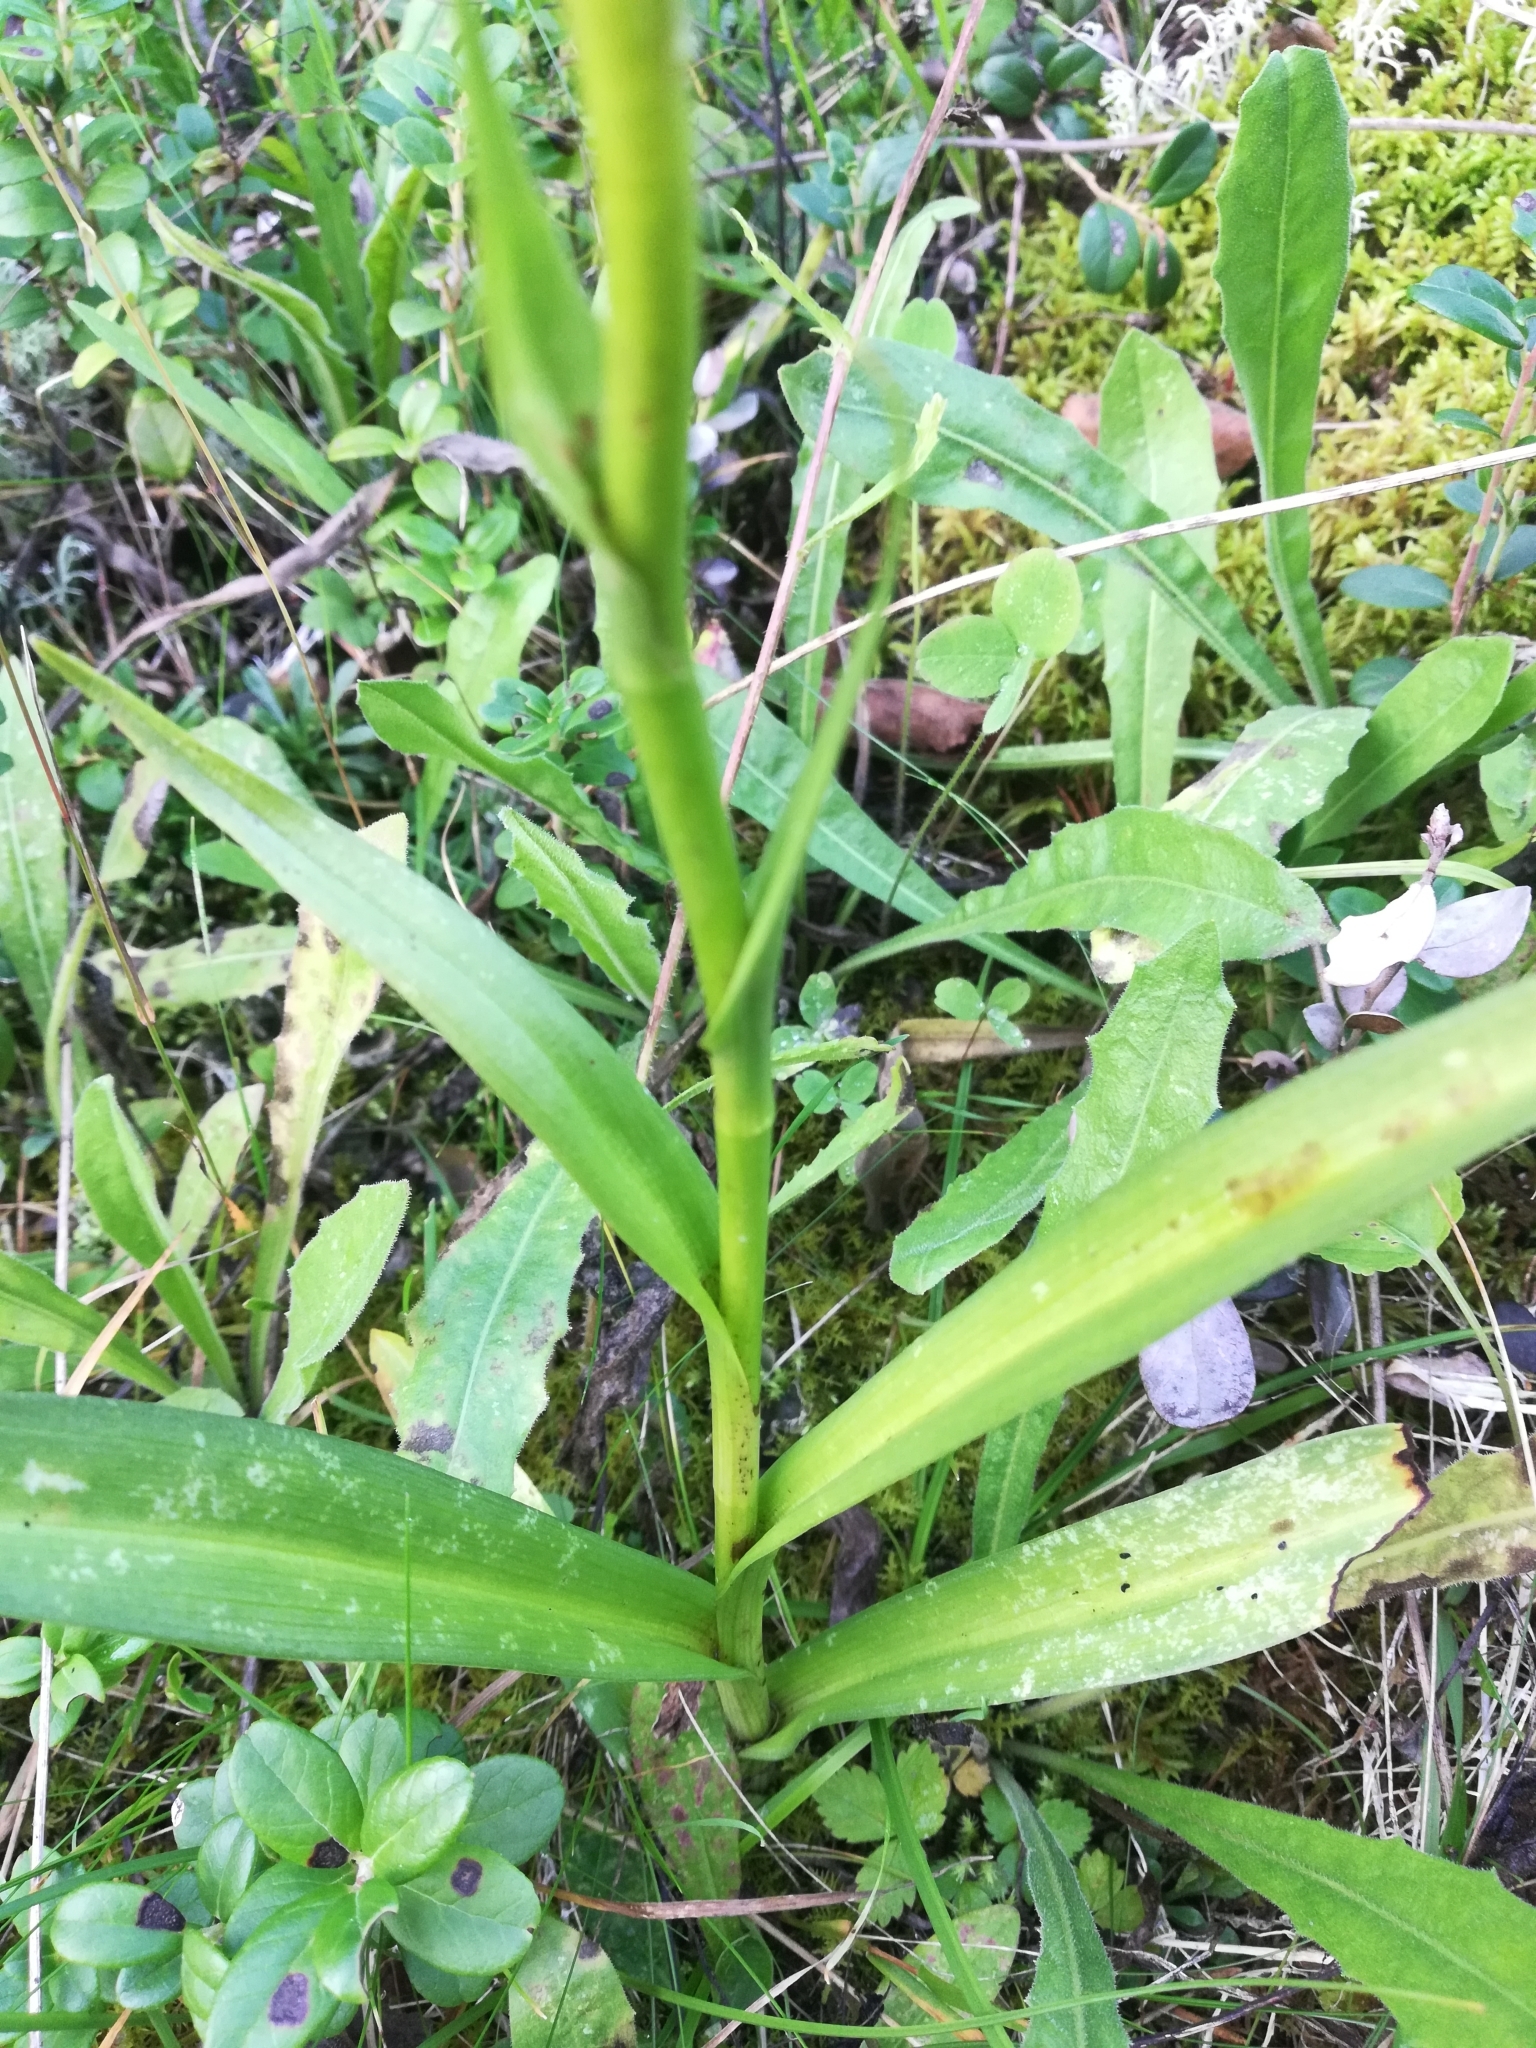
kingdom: Plantae
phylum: Tracheophyta
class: Liliopsida
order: Asparagales
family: Orchidaceae
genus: Gymnadenia
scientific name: Gymnadenia conopsea
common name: Fragrant orchid
